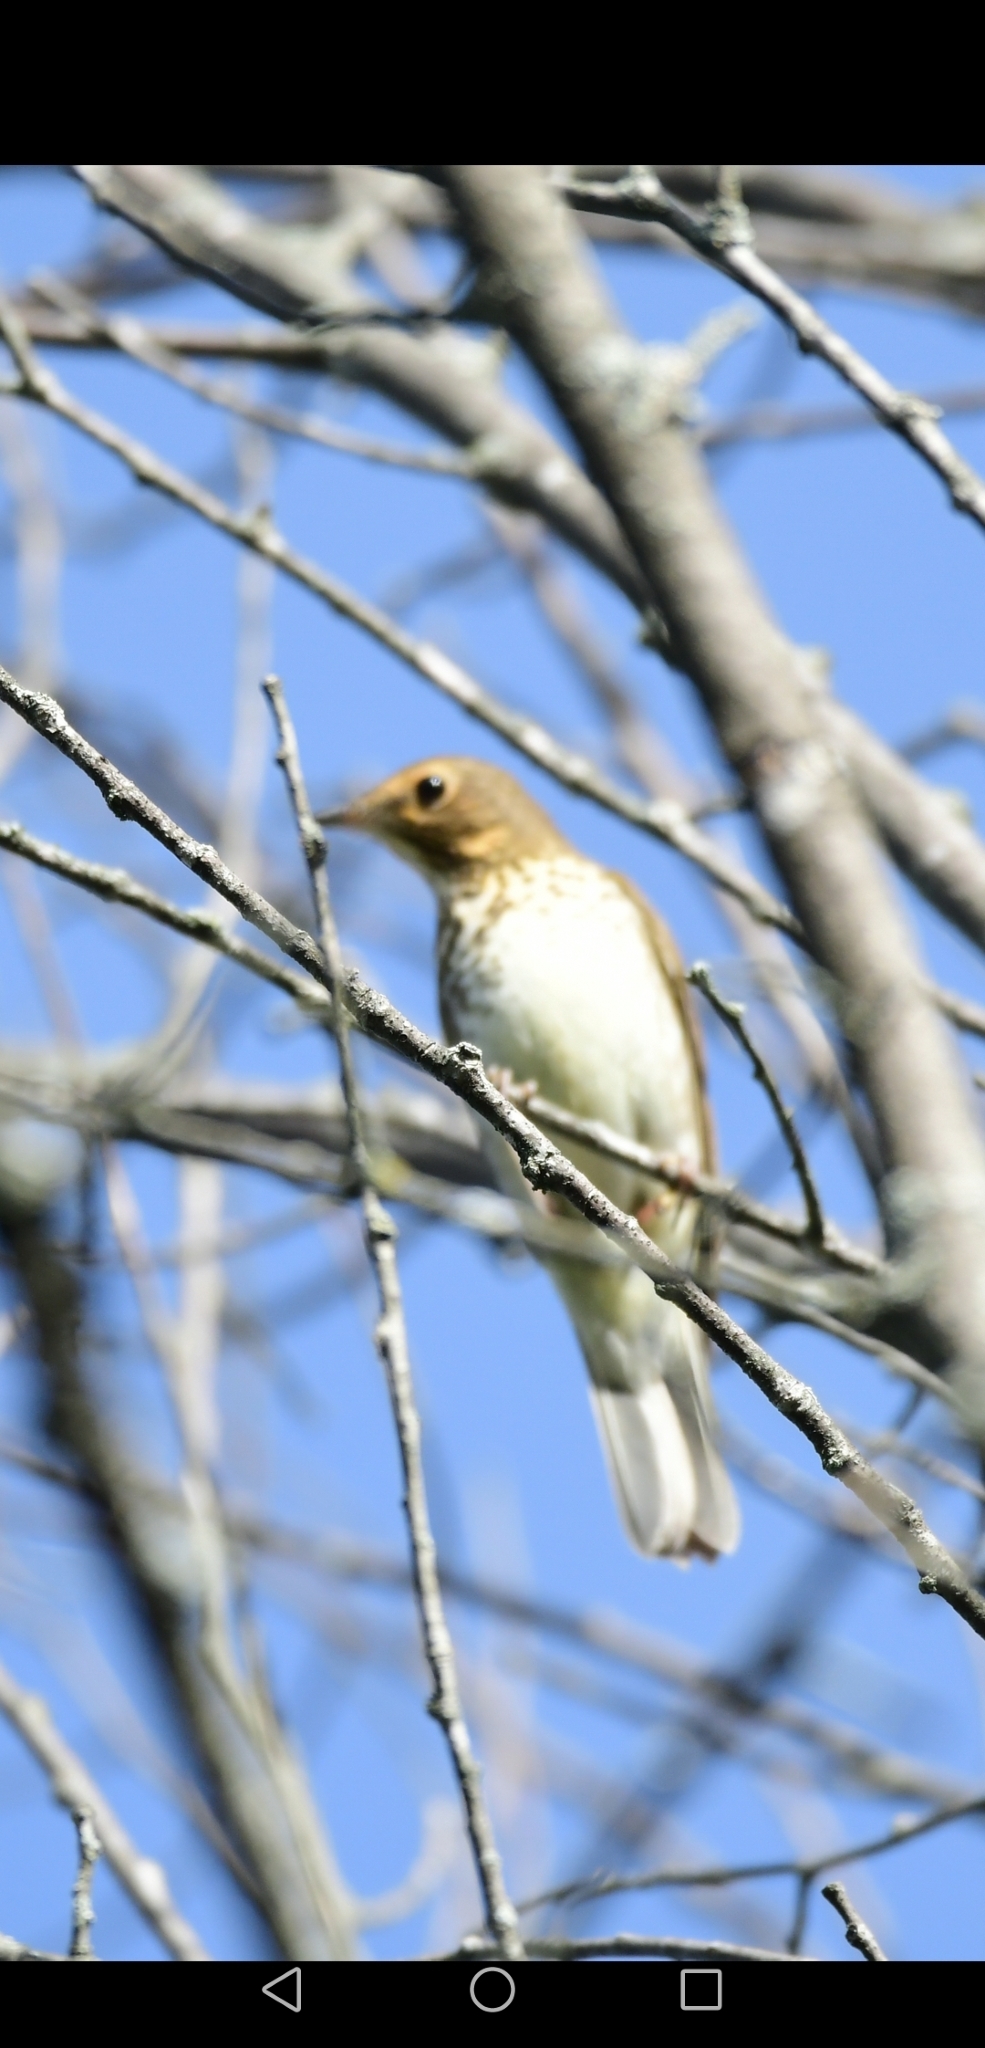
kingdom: Animalia
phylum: Chordata
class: Aves
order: Passeriformes
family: Turdidae
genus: Catharus
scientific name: Catharus ustulatus
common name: Swainson's thrush
